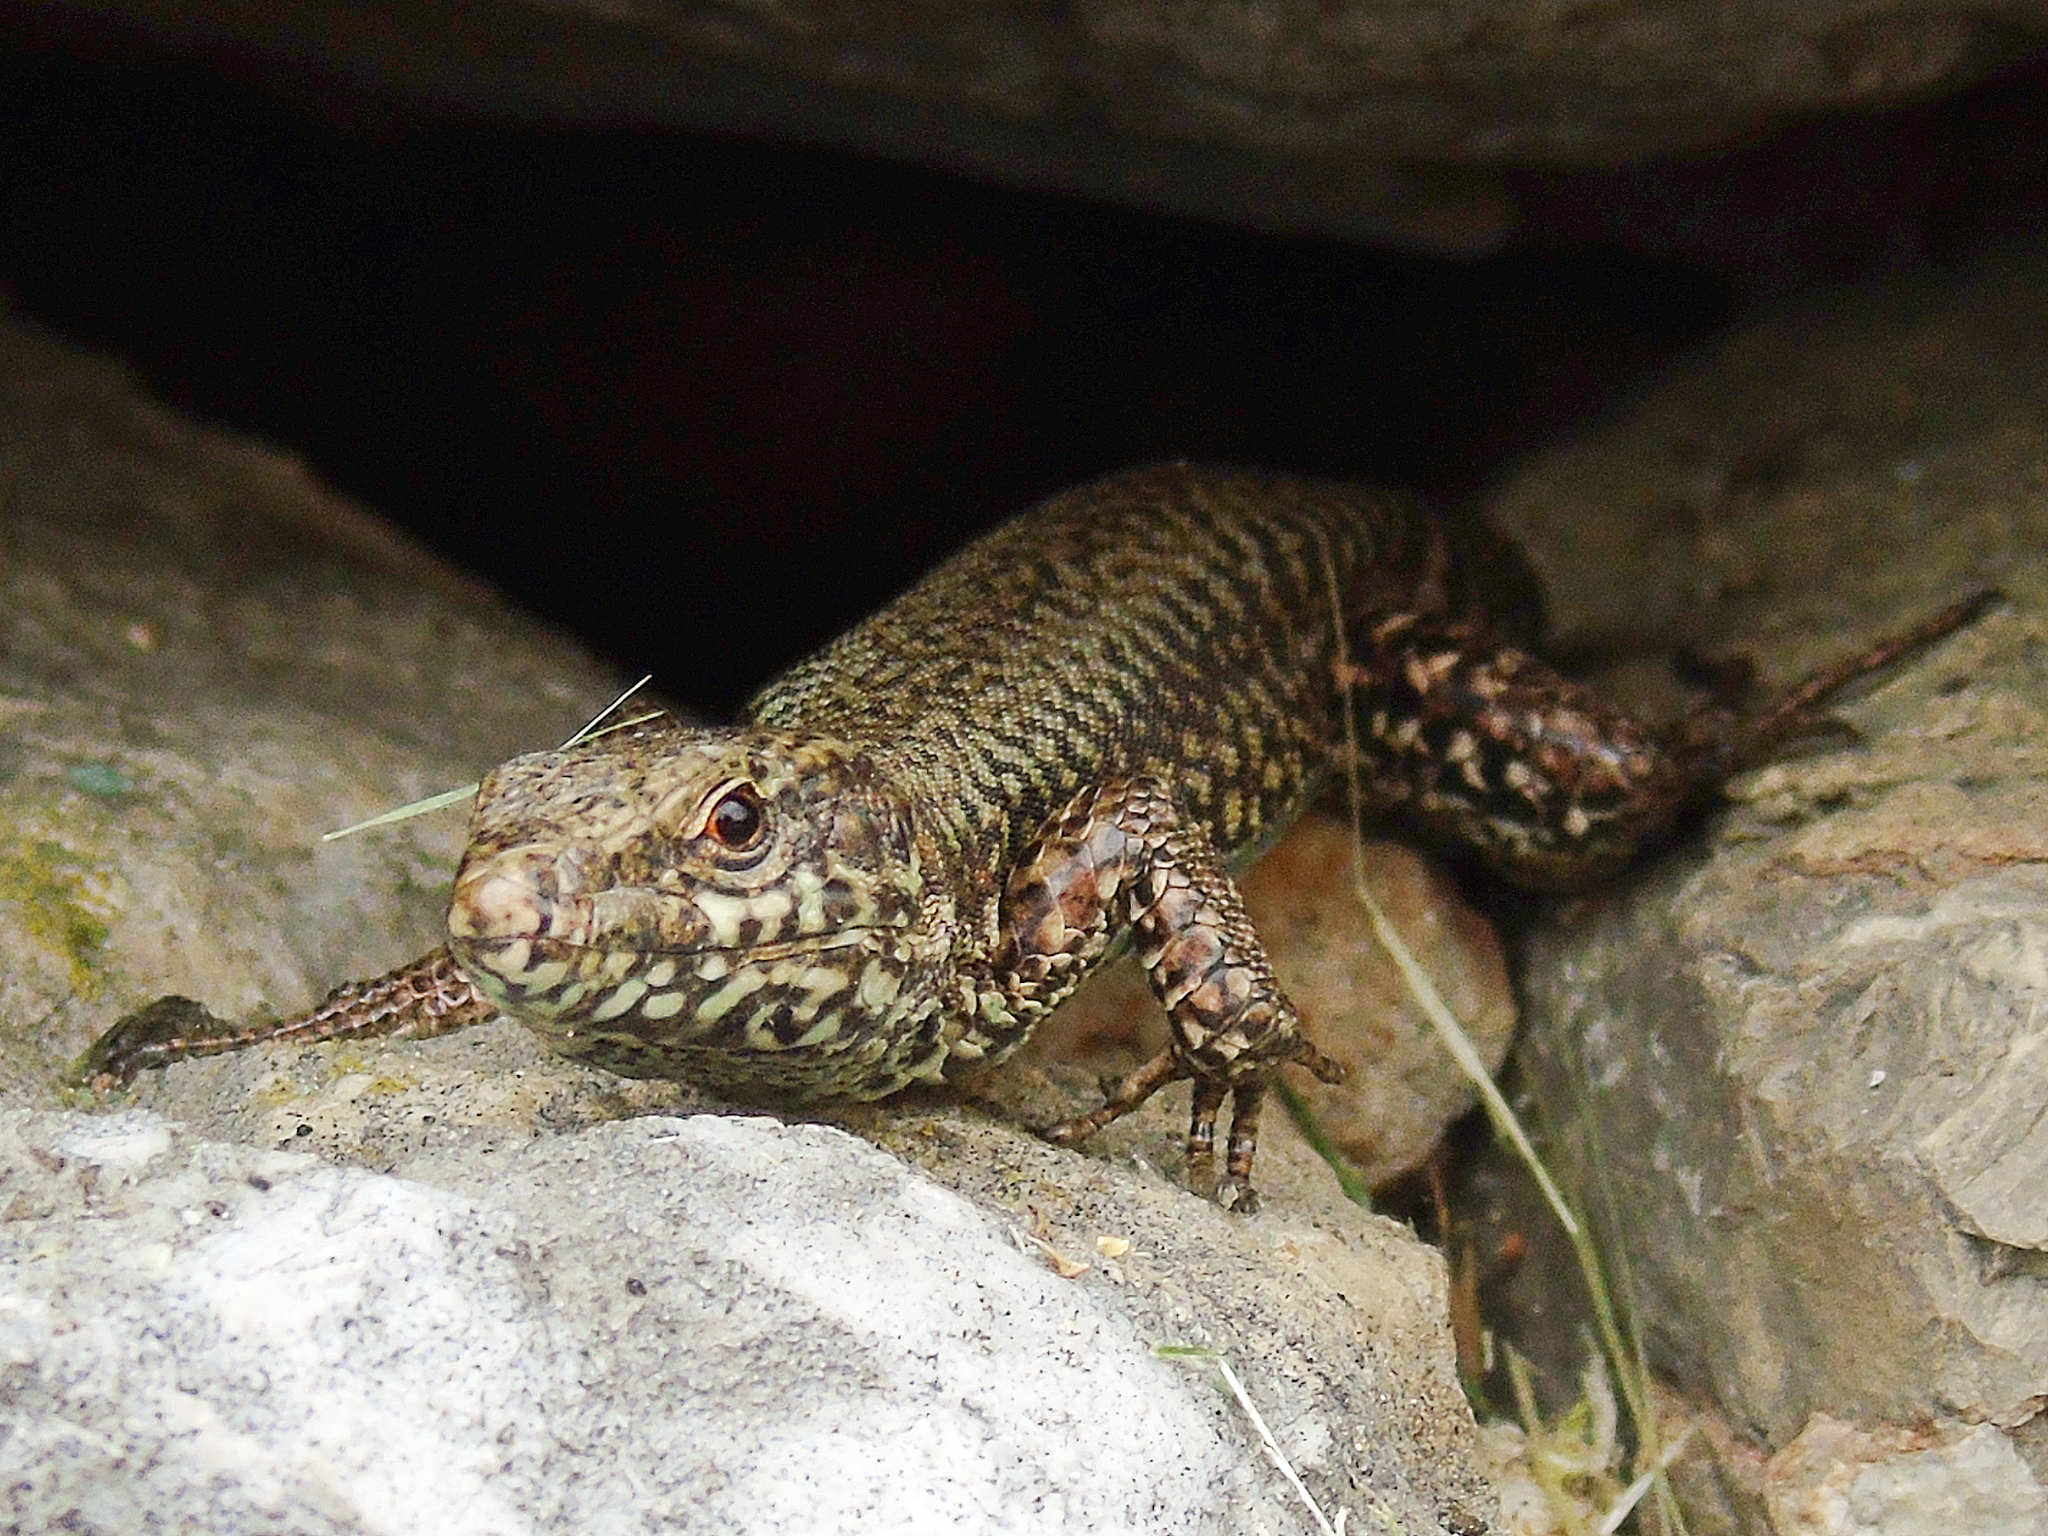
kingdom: Animalia
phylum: Chordata
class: Squamata
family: Lacertidae
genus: Podarcis
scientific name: Podarcis muralis
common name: Common wall lizard
